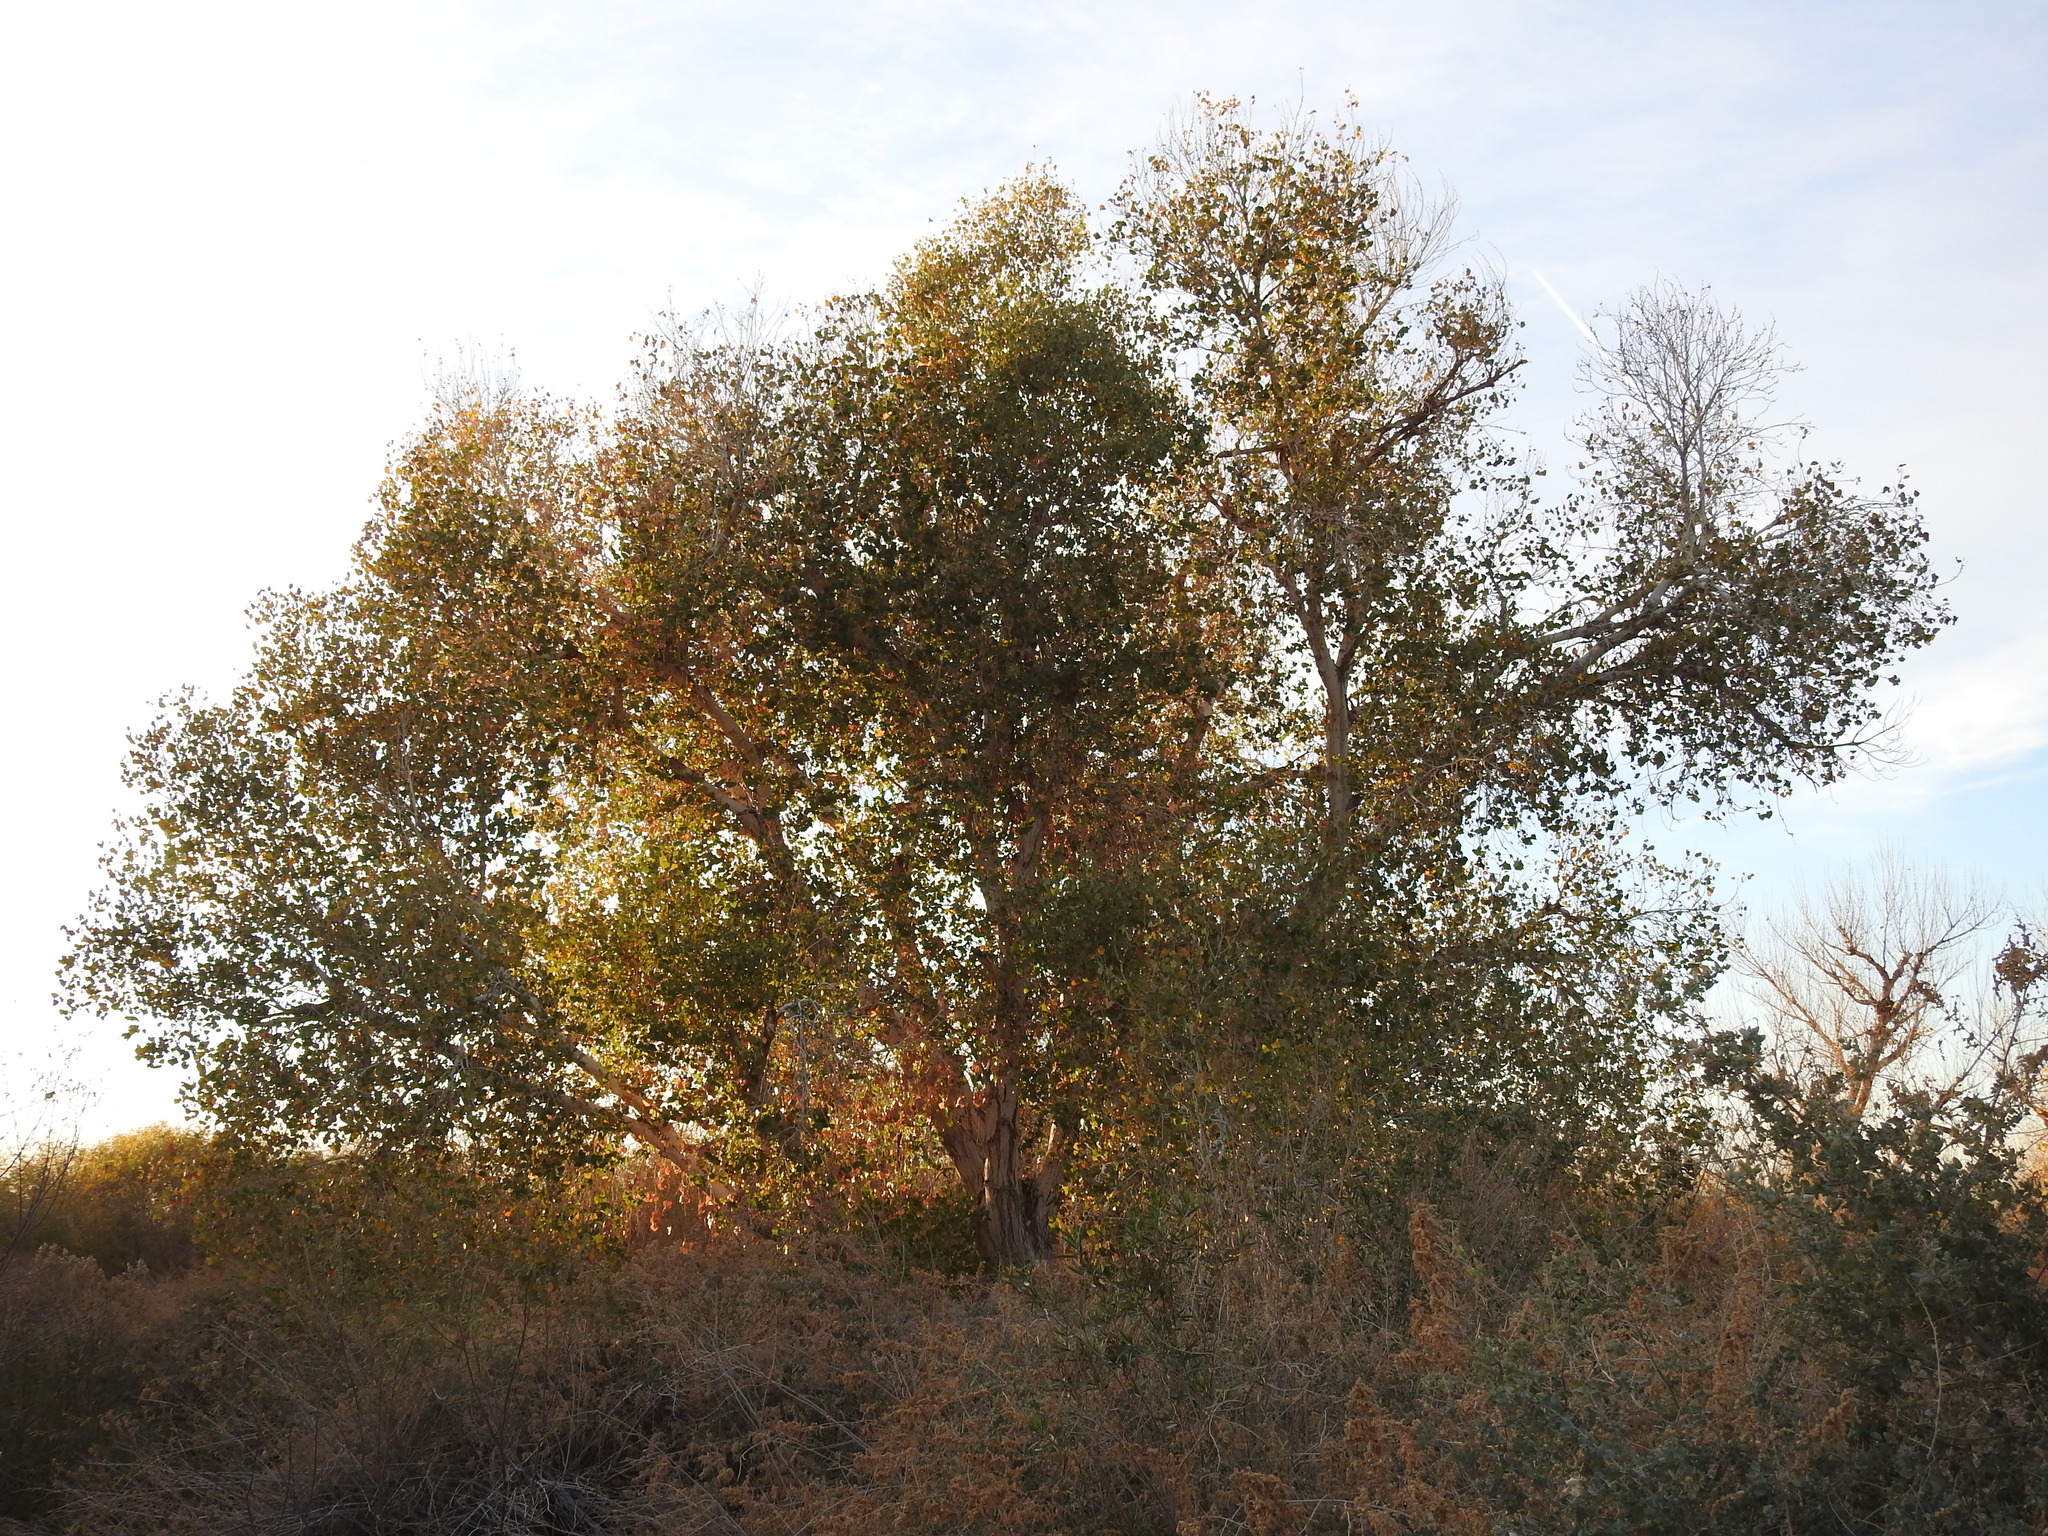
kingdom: Plantae
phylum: Tracheophyta
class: Magnoliopsida
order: Malpighiales
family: Salicaceae
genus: Populus
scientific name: Populus fremontii
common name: Fremont's cottonwood
